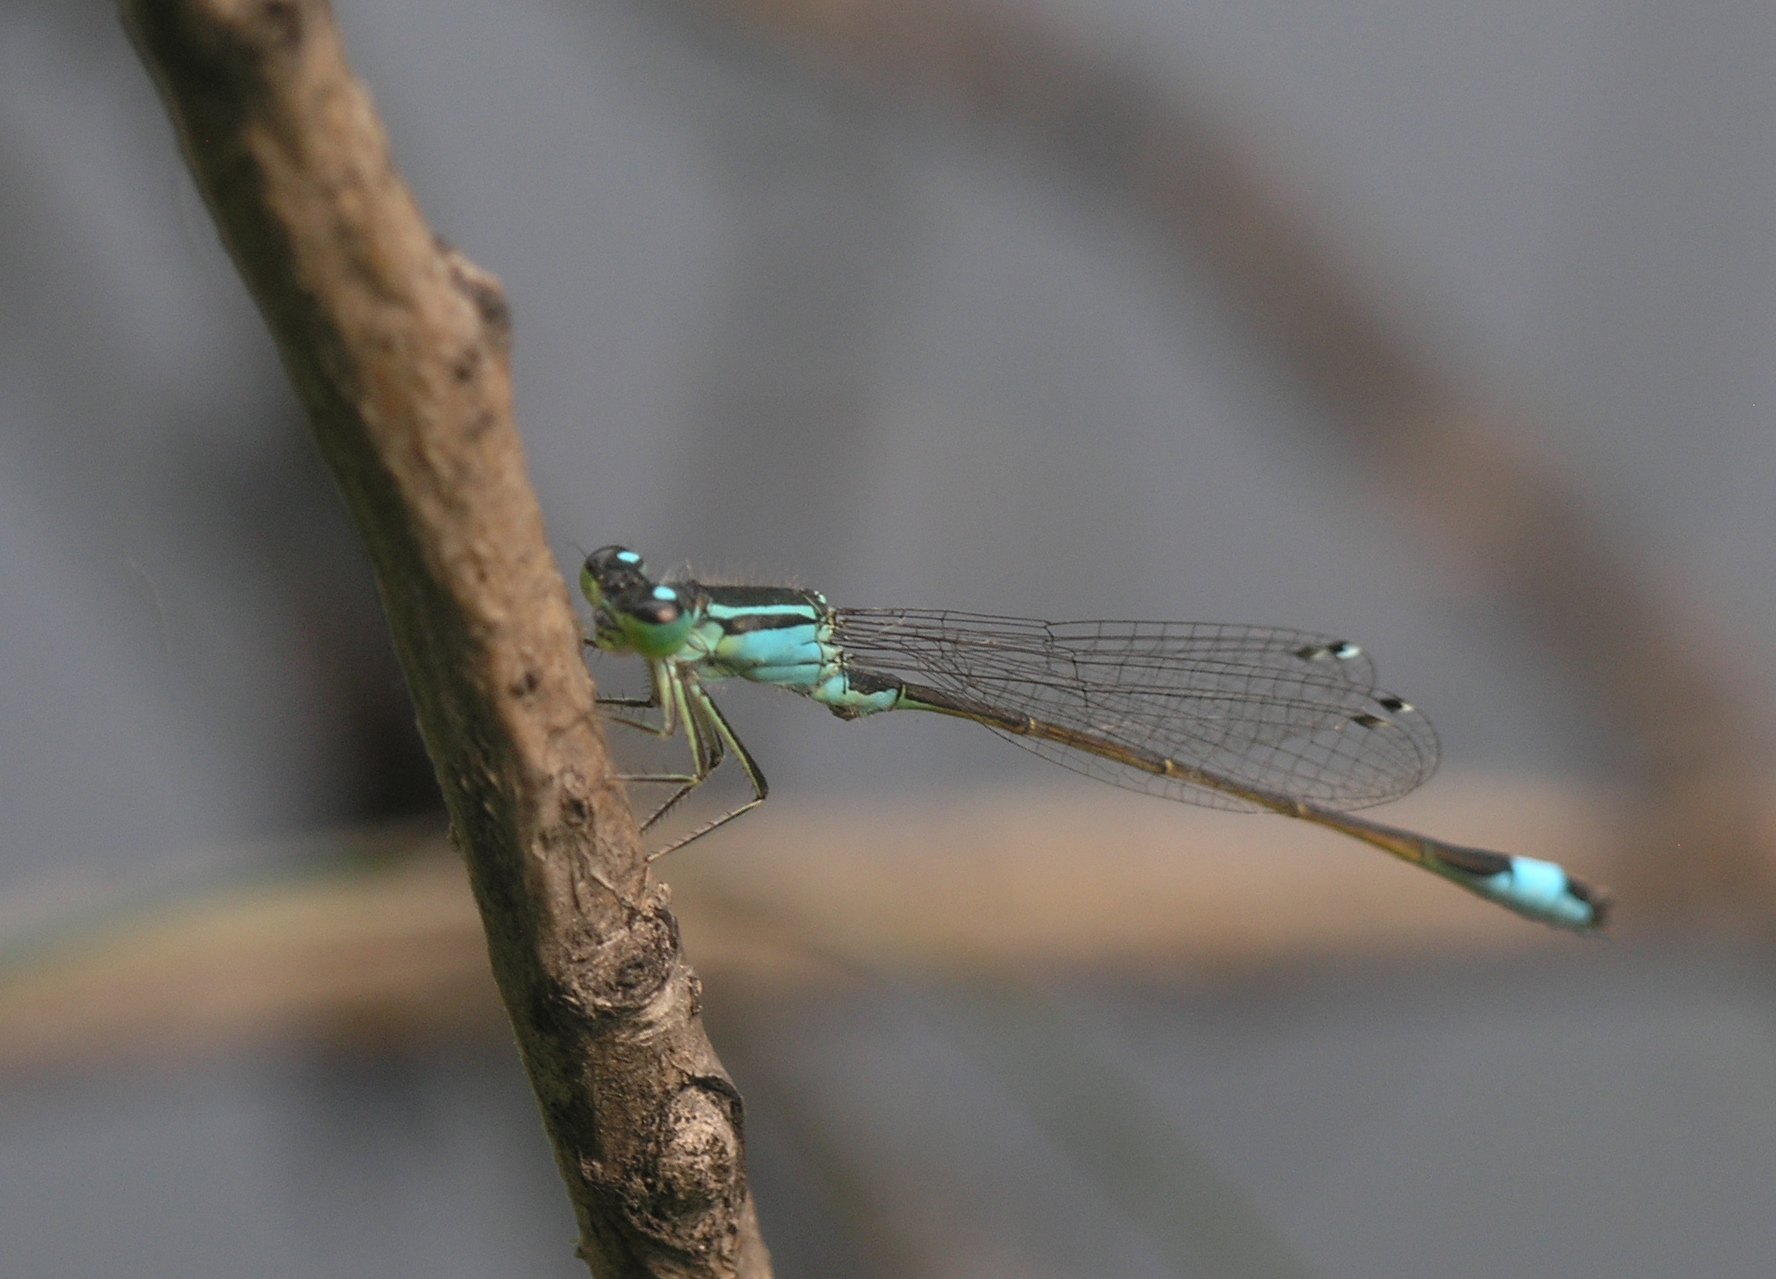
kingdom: Animalia
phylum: Arthropoda
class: Insecta
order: Odonata
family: Coenagrionidae
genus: Ischnura
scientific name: Ischnura elegans
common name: Blue-tailed damselfly
